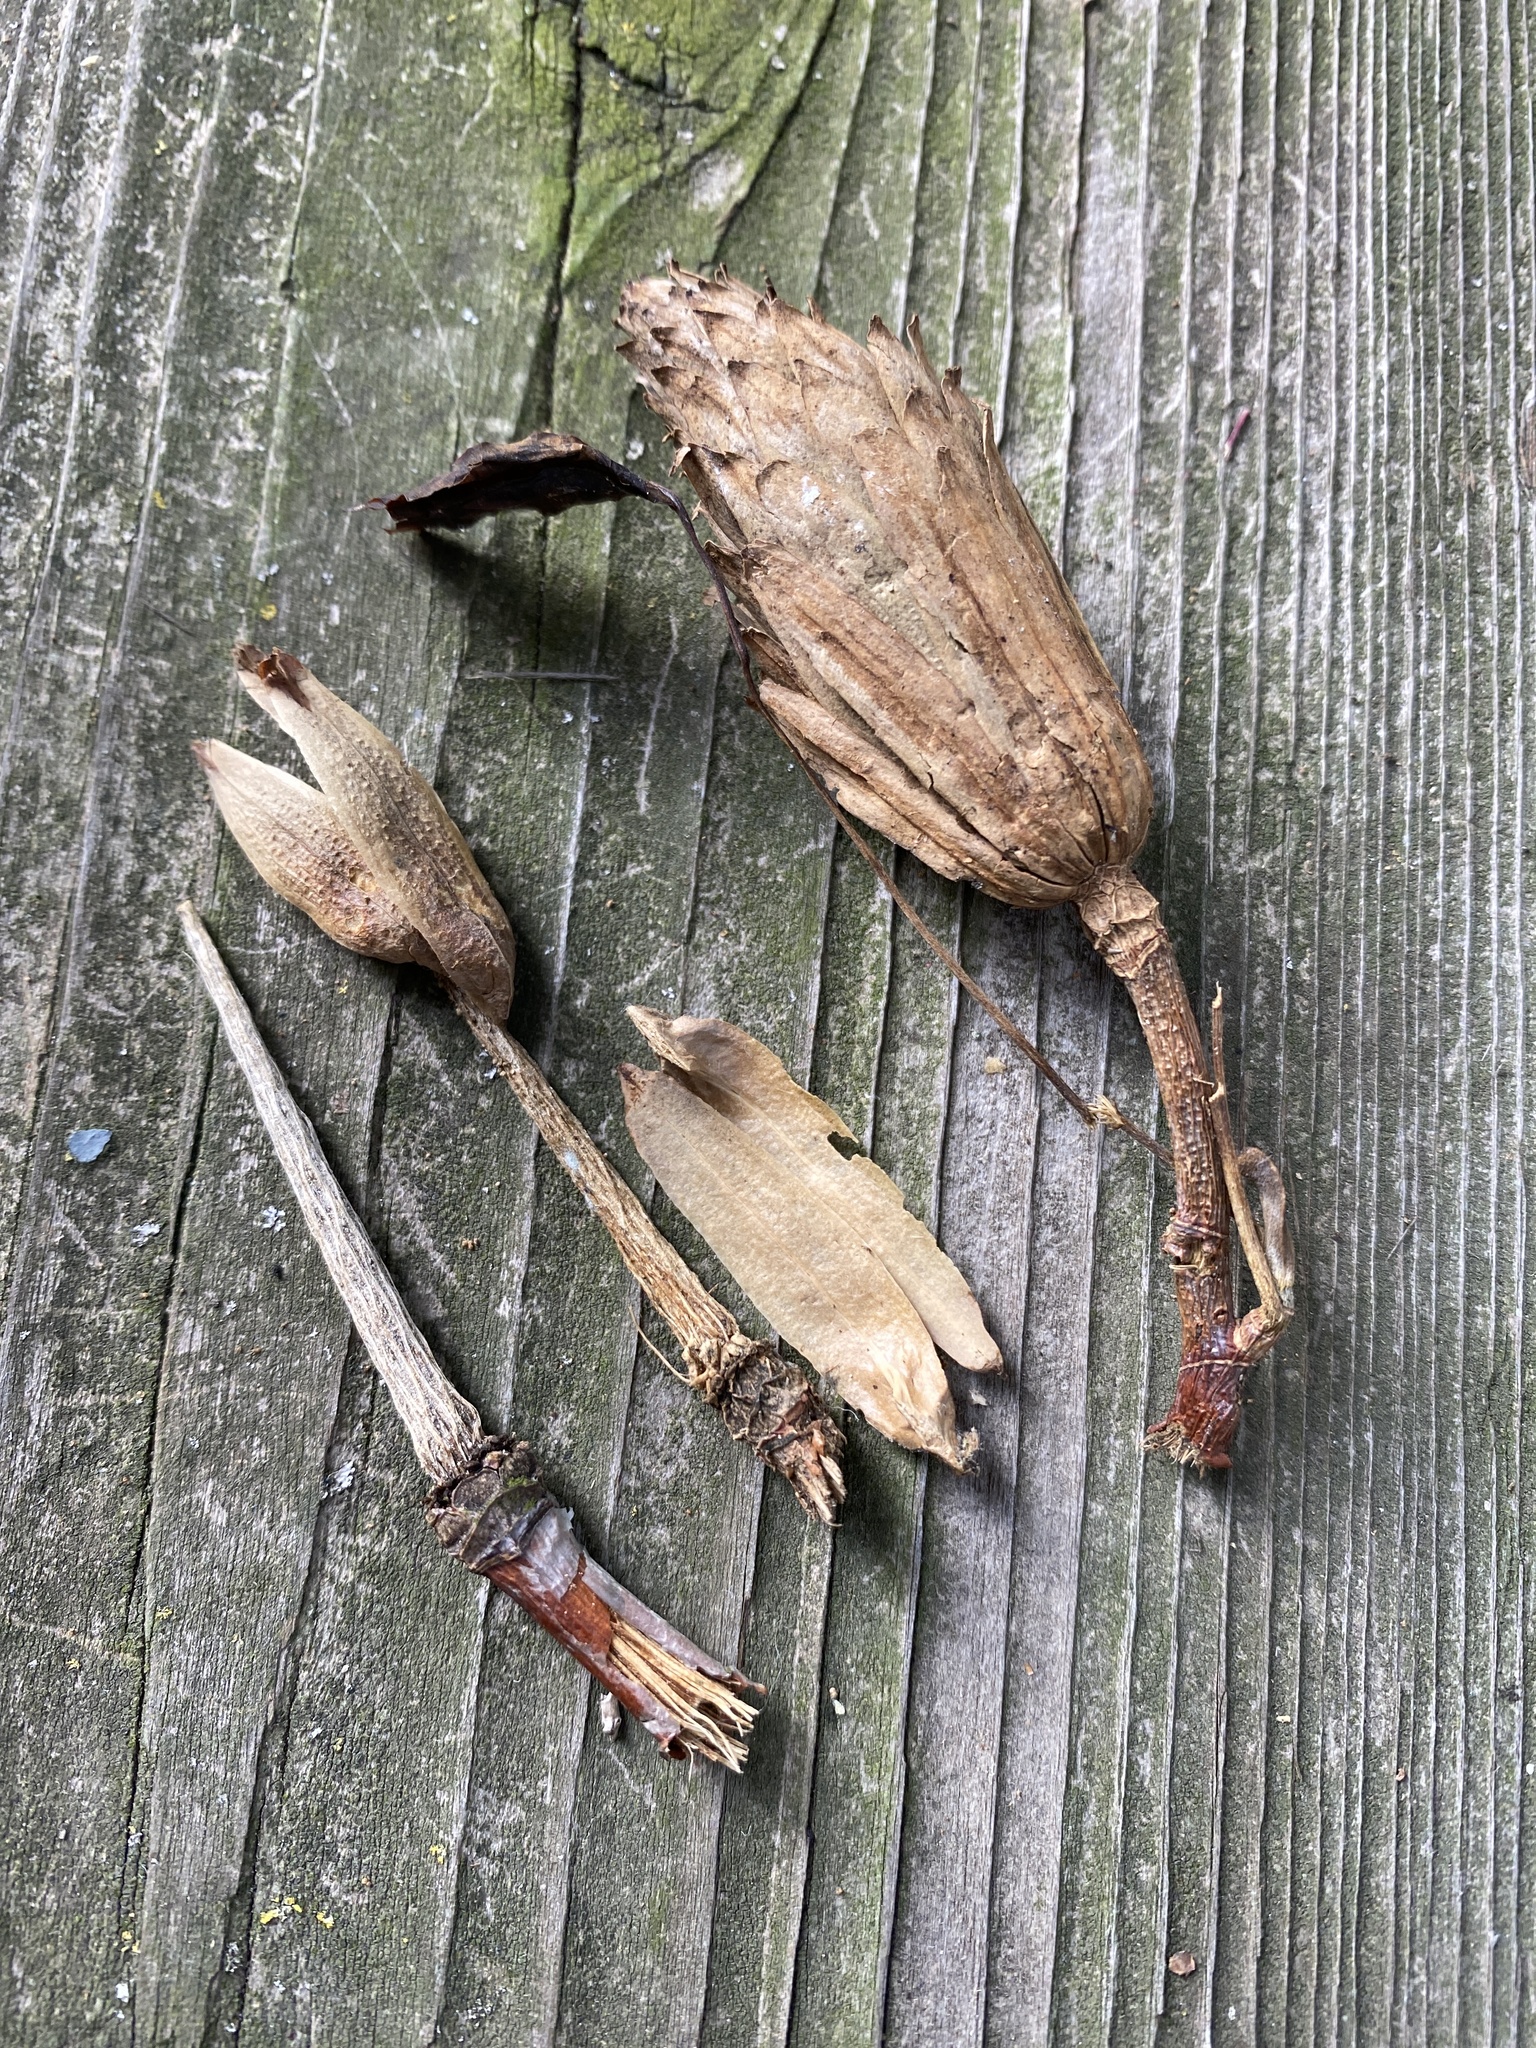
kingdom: Plantae
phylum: Tracheophyta
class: Magnoliopsida
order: Magnoliales
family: Magnoliaceae
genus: Liriodendron
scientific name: Liriodendron tulipifera
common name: Tulip tree
